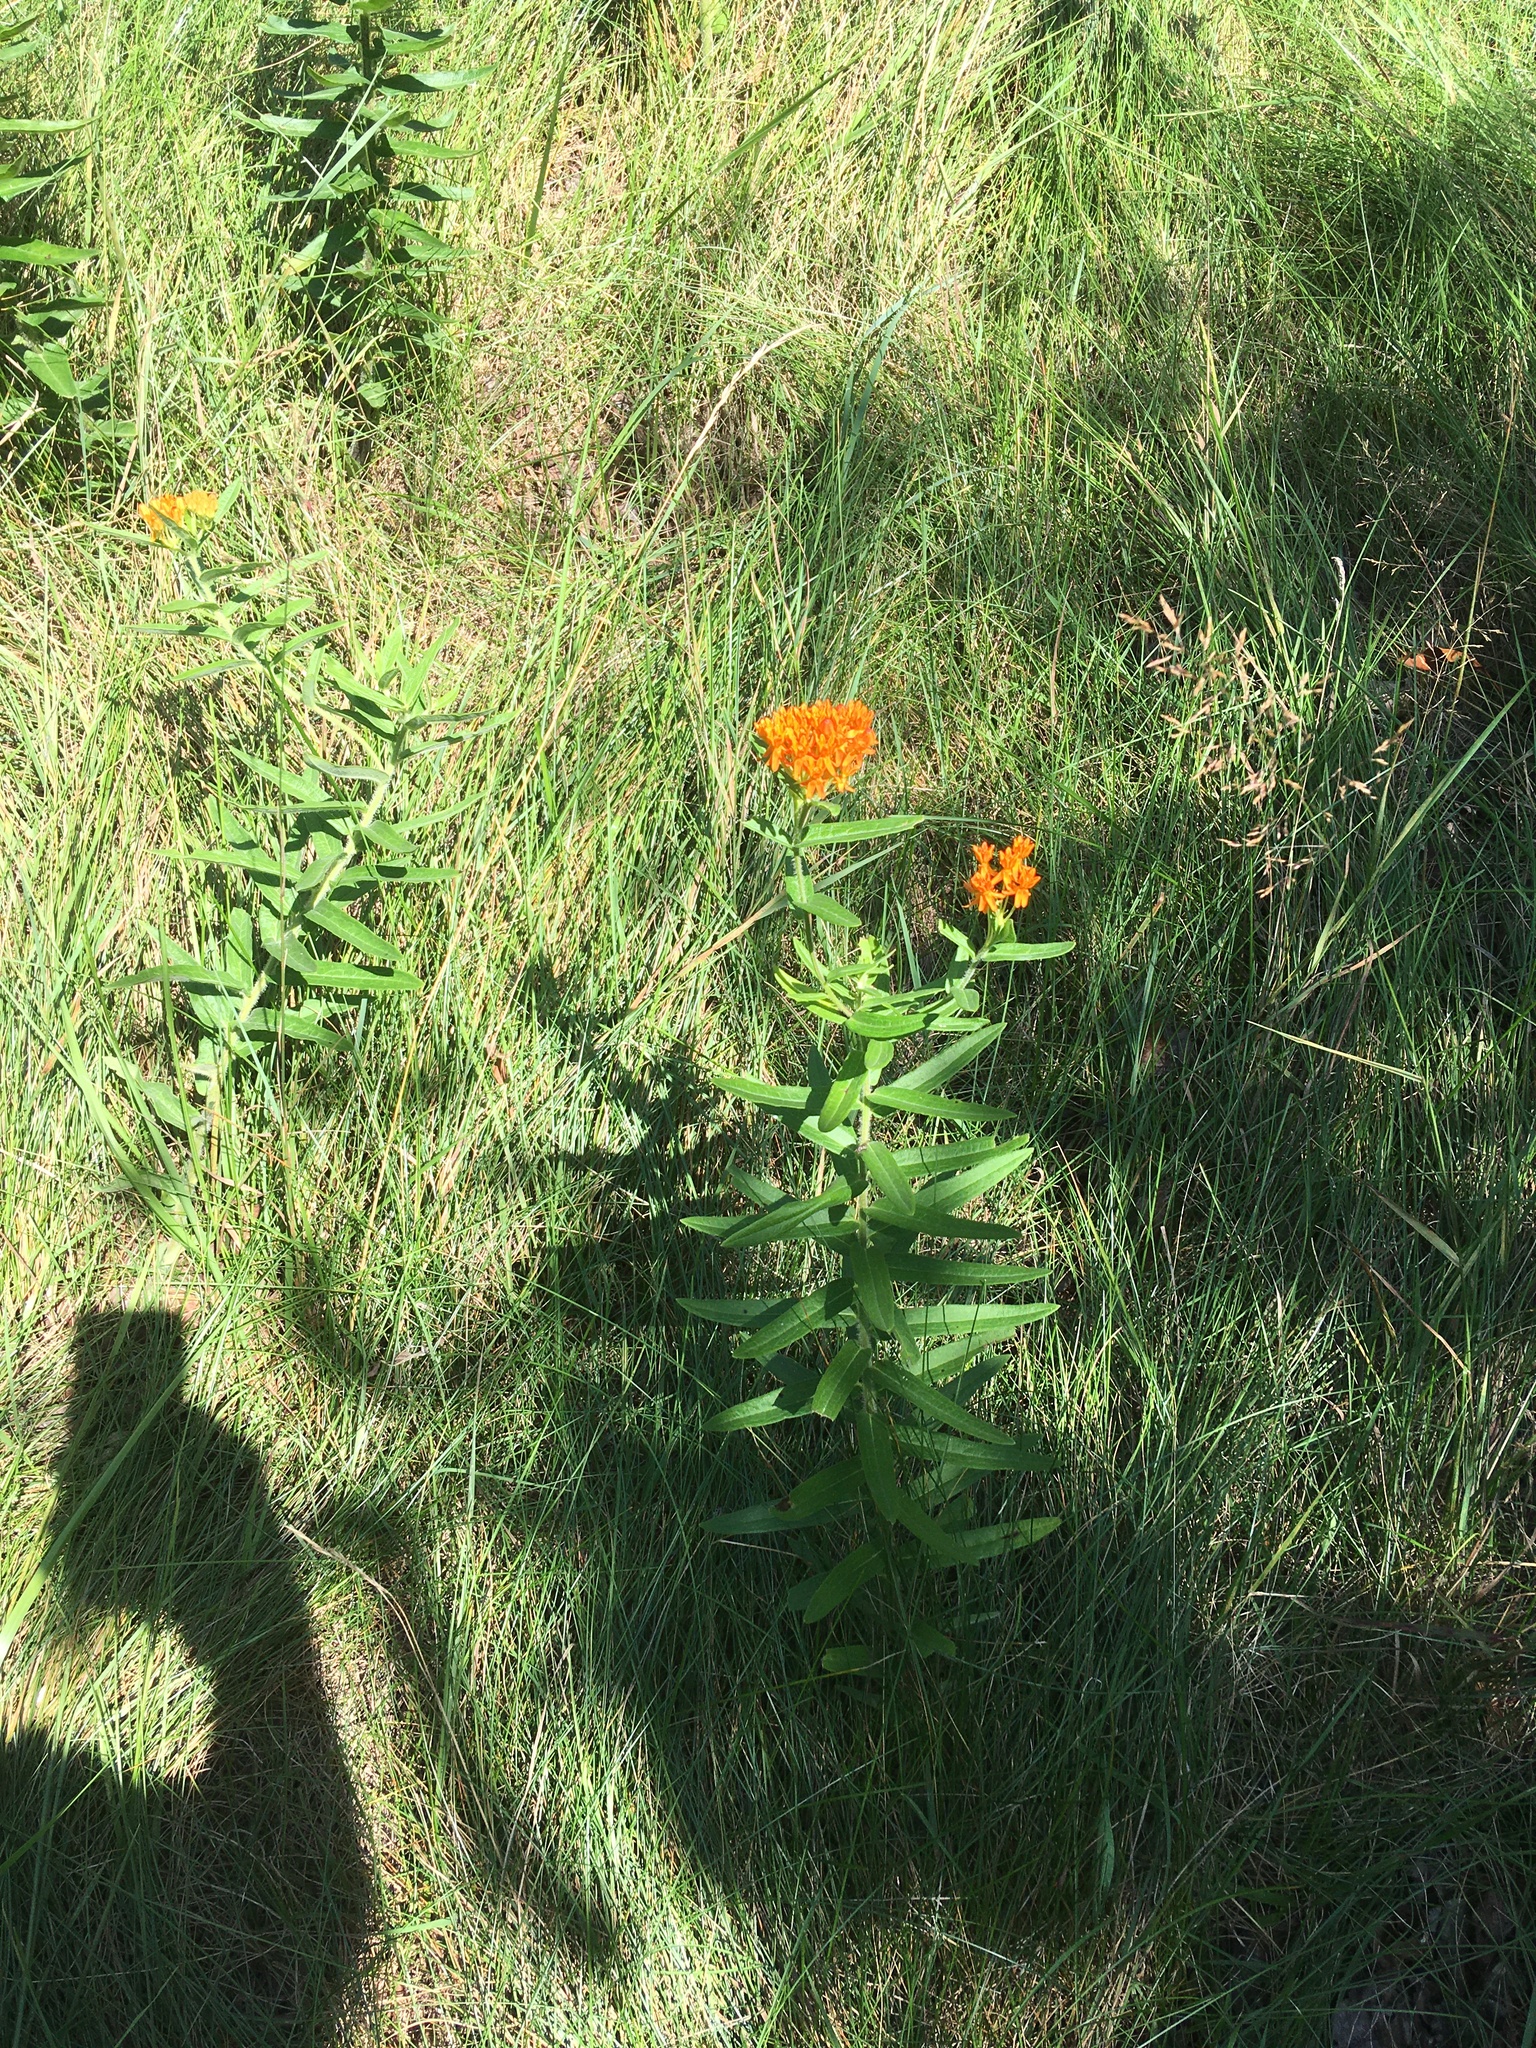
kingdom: Plantae
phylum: Tracheophyta
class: Magnoliopsida
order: Gentianales
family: Apocynaceae
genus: Asclepias
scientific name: Asclepias tuberosa
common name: Butterfly milkweed
